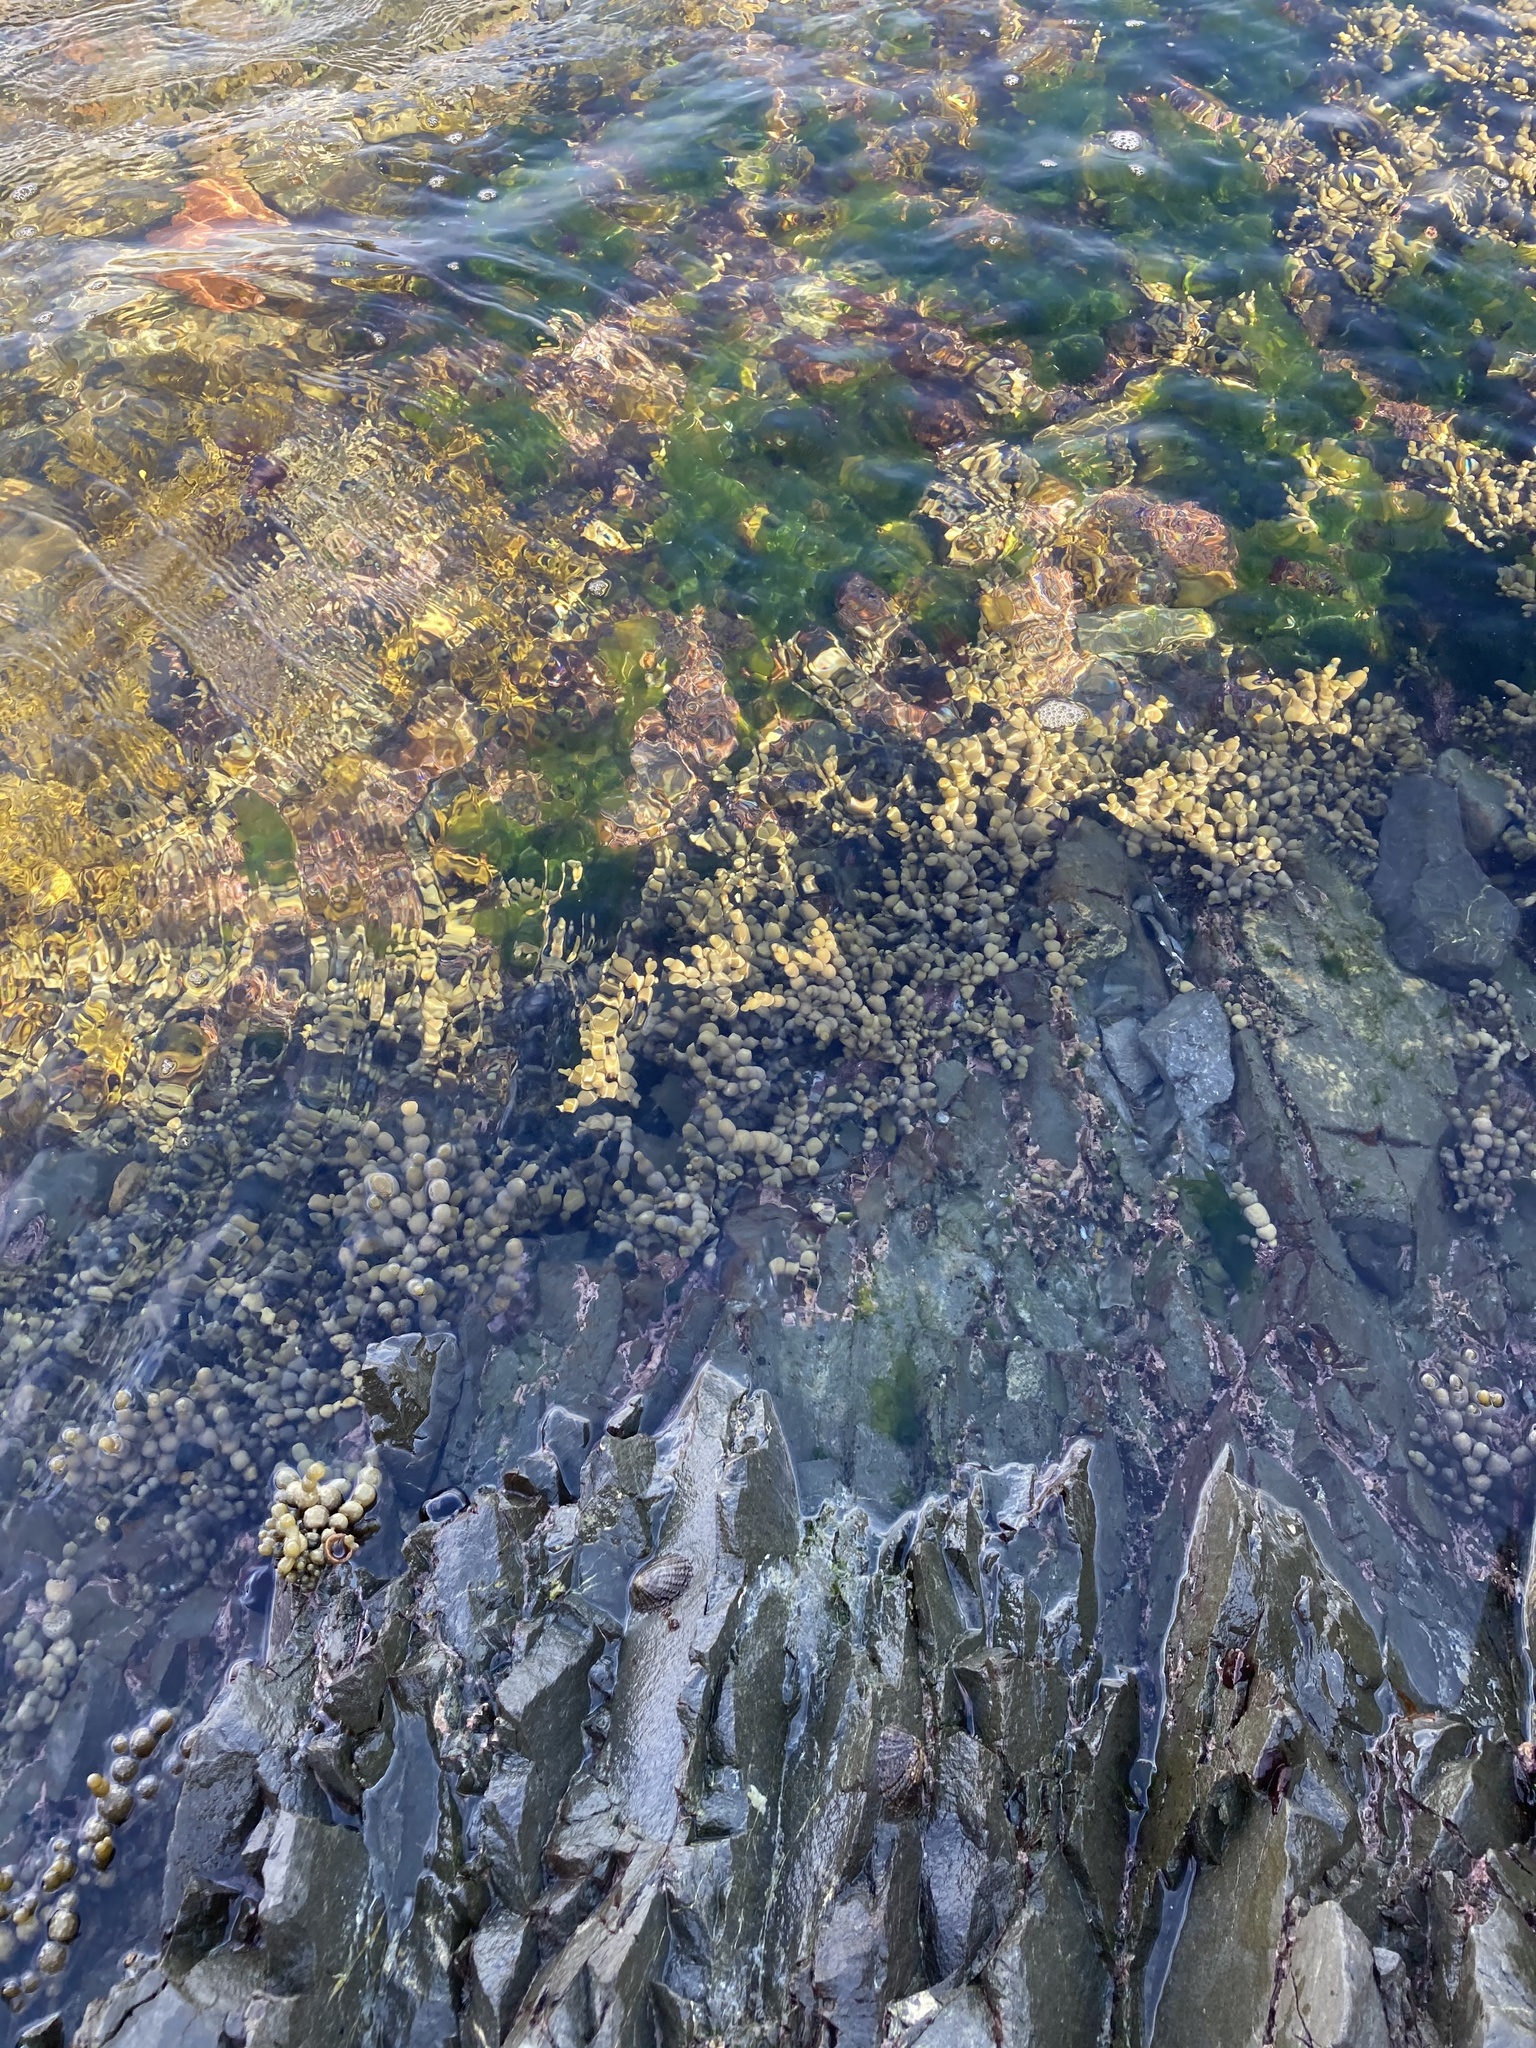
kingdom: Chromista
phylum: Ochrophyta
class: Phaeophyceae
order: Fucales
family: Hormosiraceae
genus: Hormosira
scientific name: Hormosira banksii
